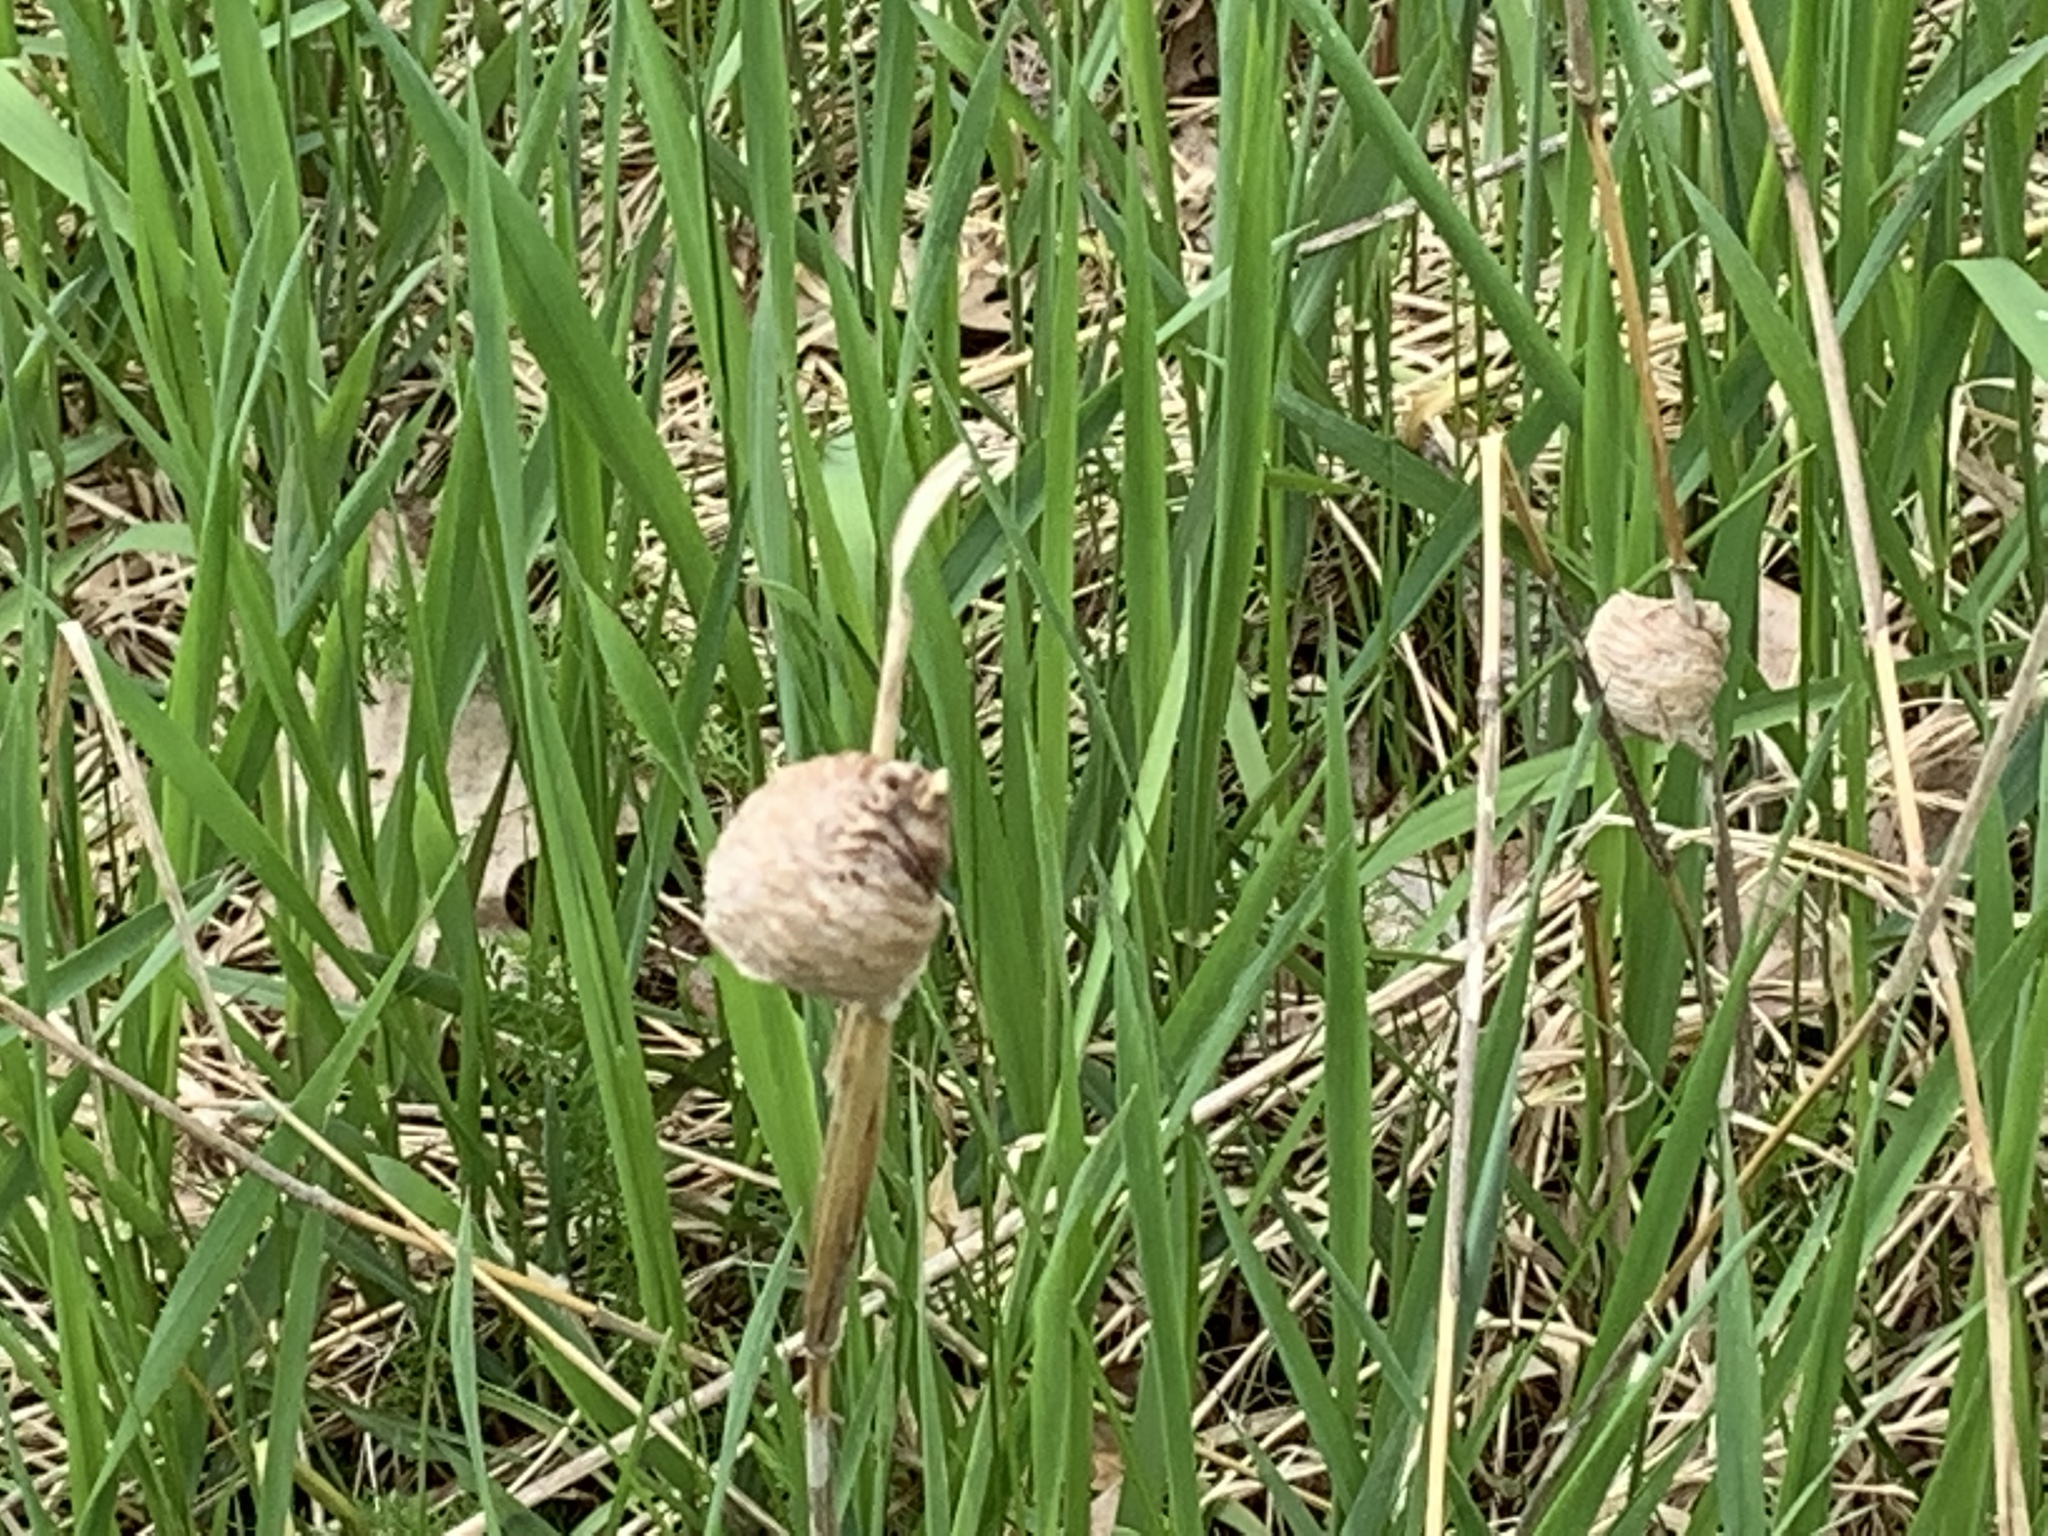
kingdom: Animalia
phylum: Arthropoda
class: Insecta
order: Mantodea
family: Mantidae
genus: Tenodera
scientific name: Tenodera sinensis
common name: Chinese mantis
